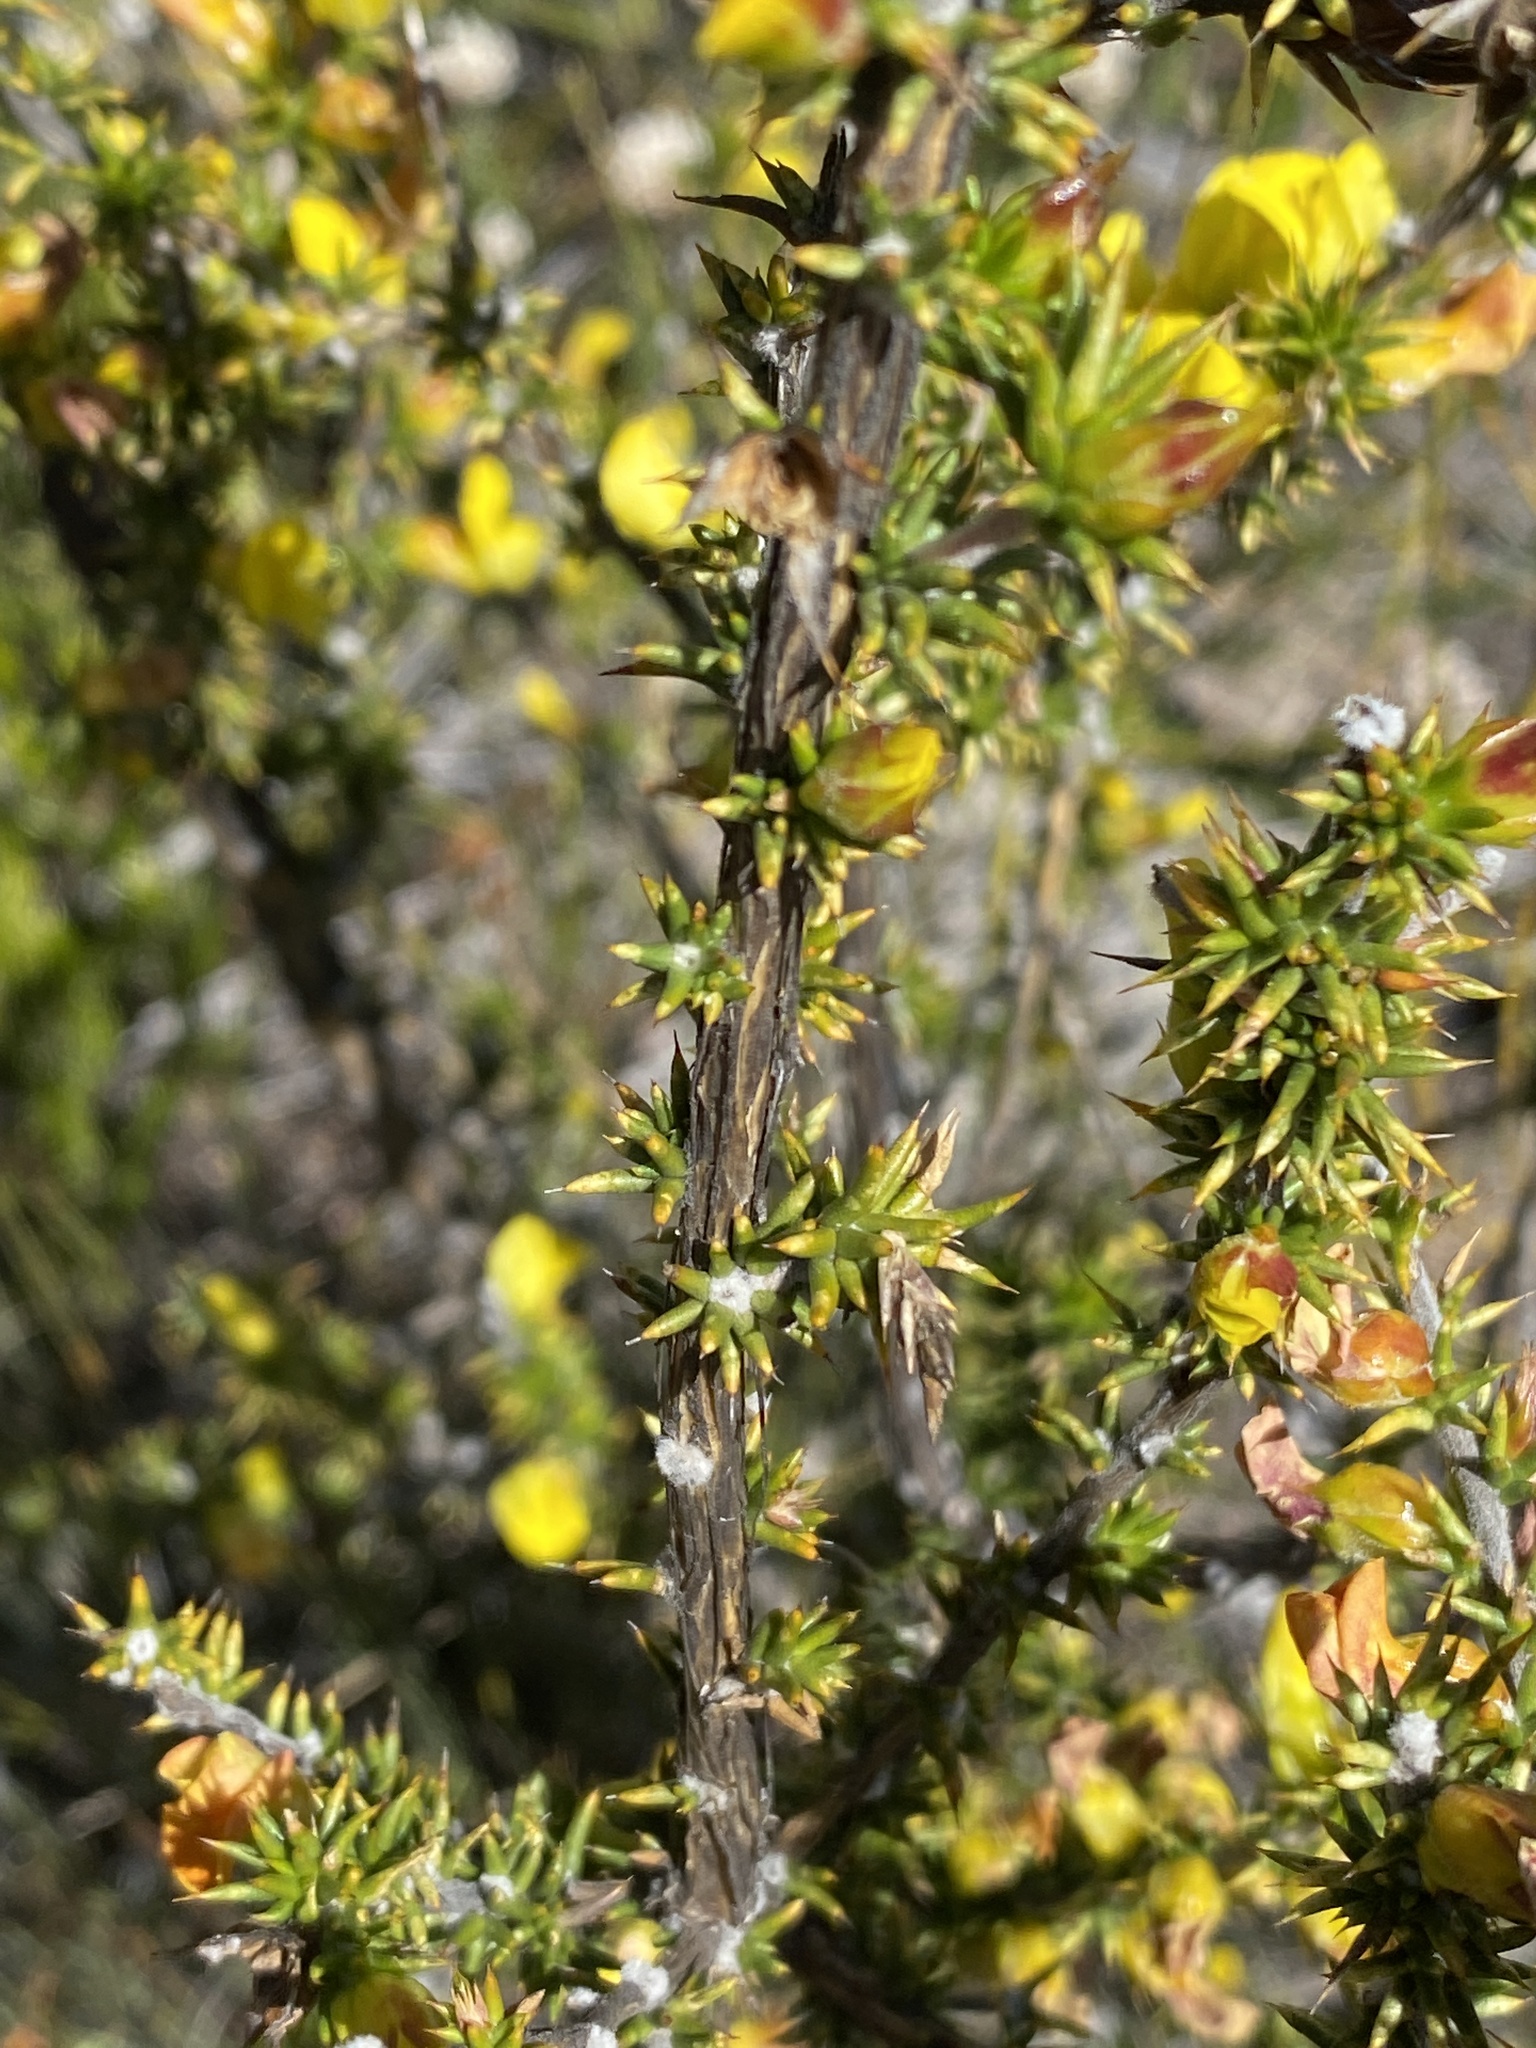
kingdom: Plantae
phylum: Tracheophyta
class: Magnoliopsida
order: Fabales
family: Fabaceae
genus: Aspalathus
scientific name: Aspalathus collina
